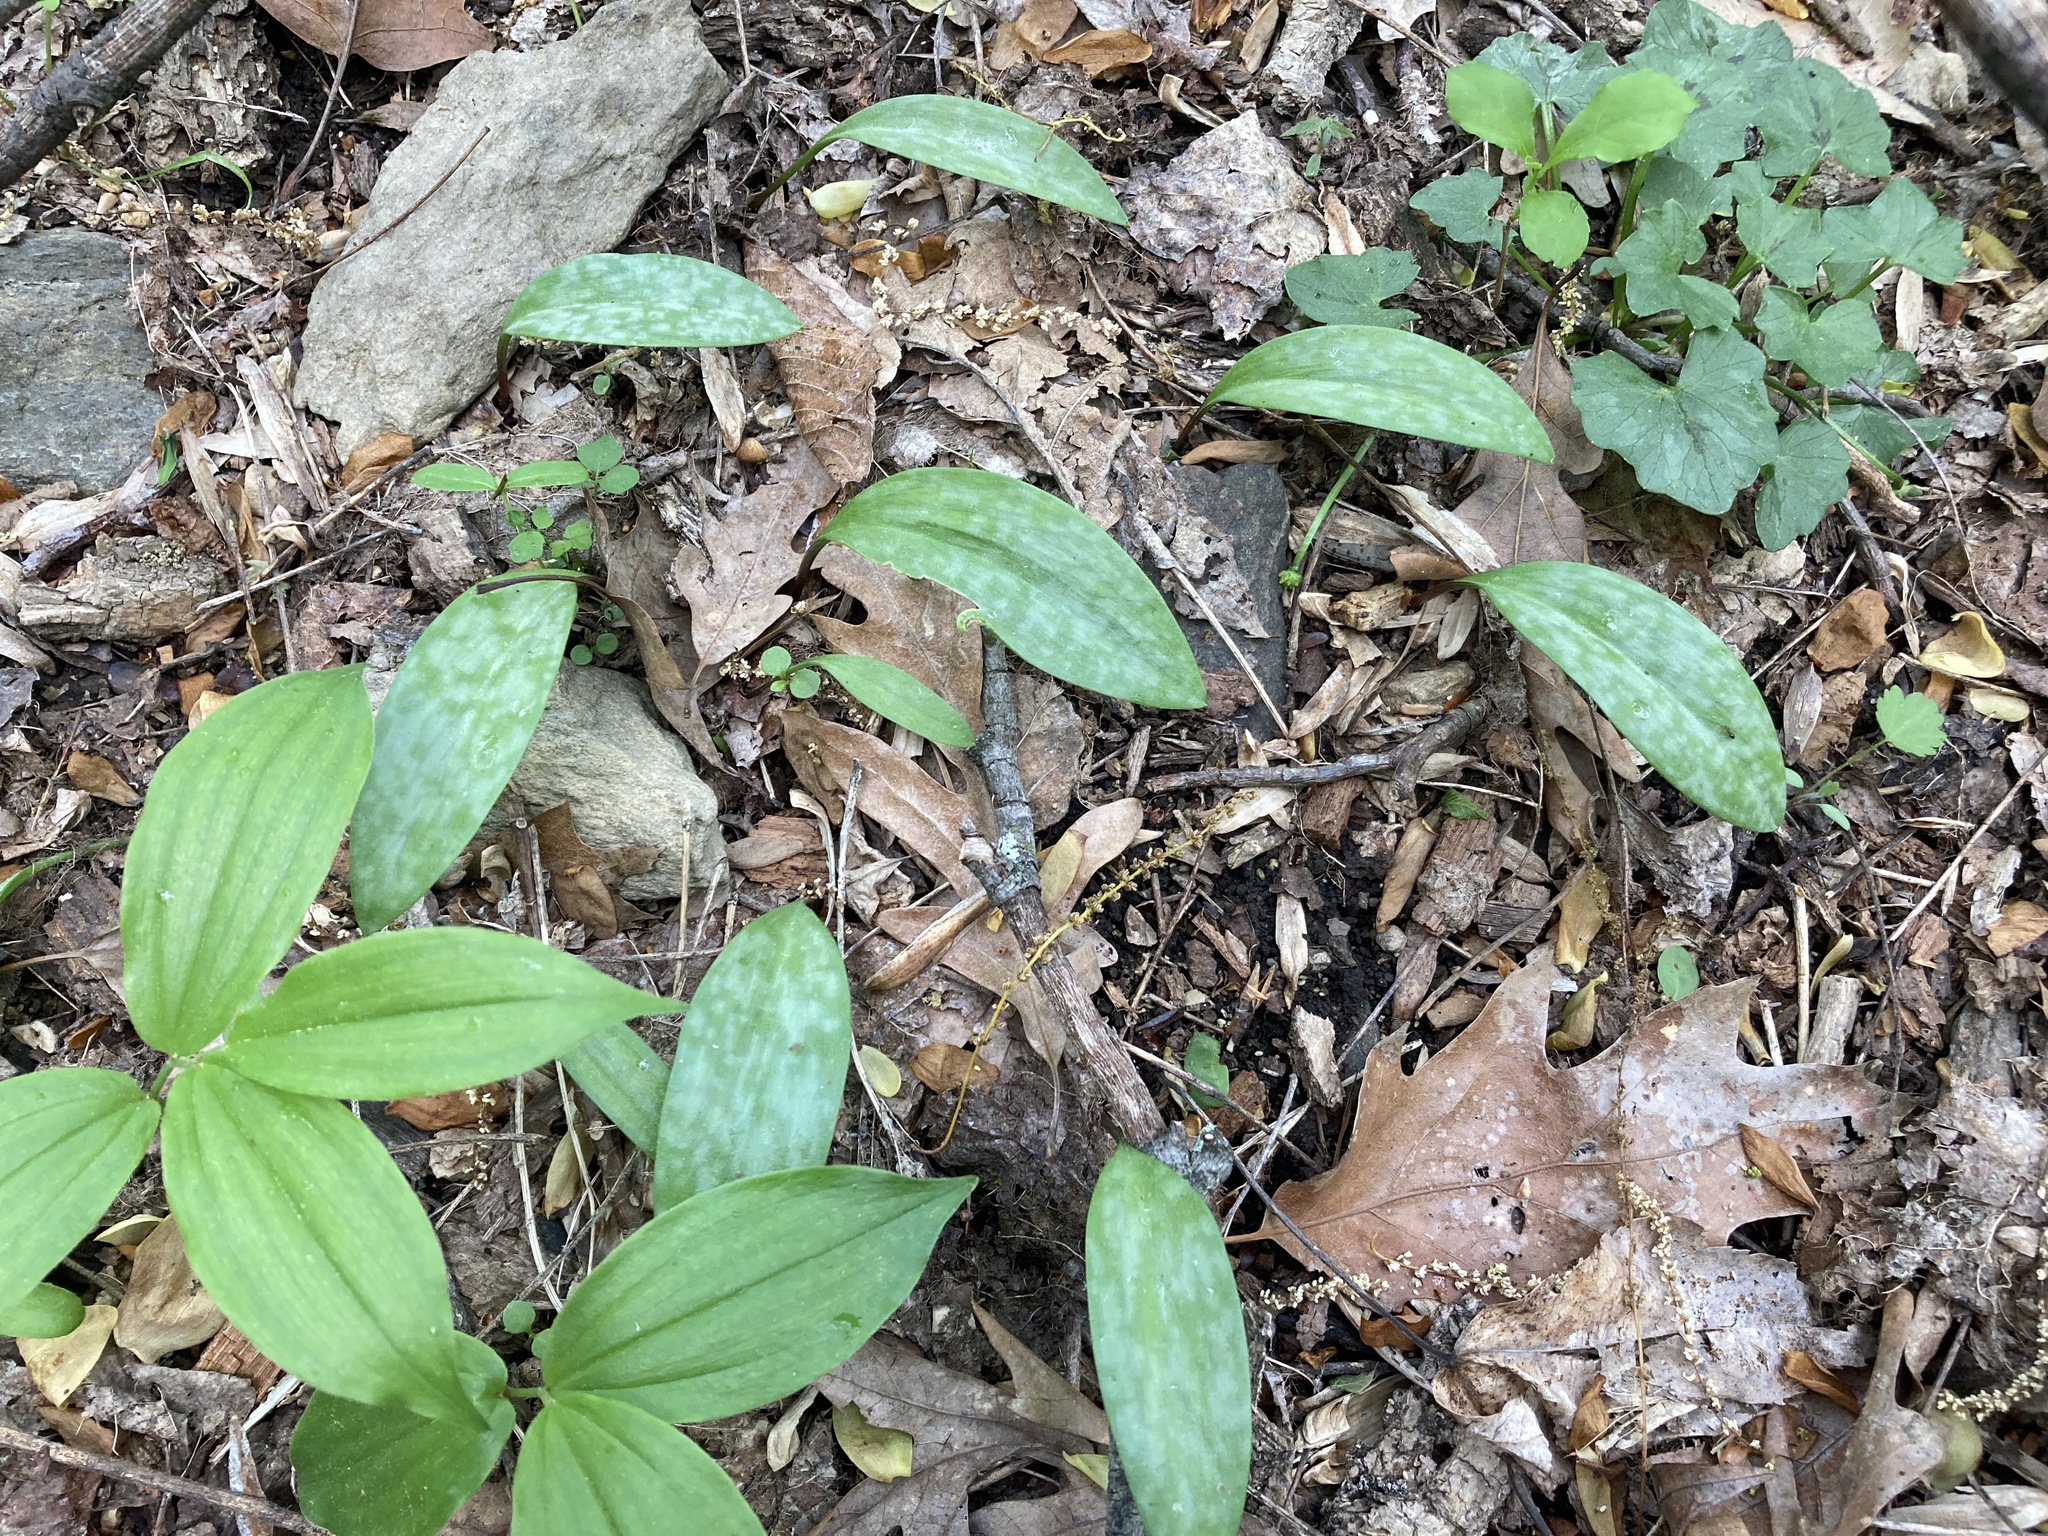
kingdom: Plantae
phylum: Tracheophyta
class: Liliopsida
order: Liliales
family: Liliaceae
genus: Erythronium
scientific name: Erythronium americanum
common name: Yellow adder's-tongue
